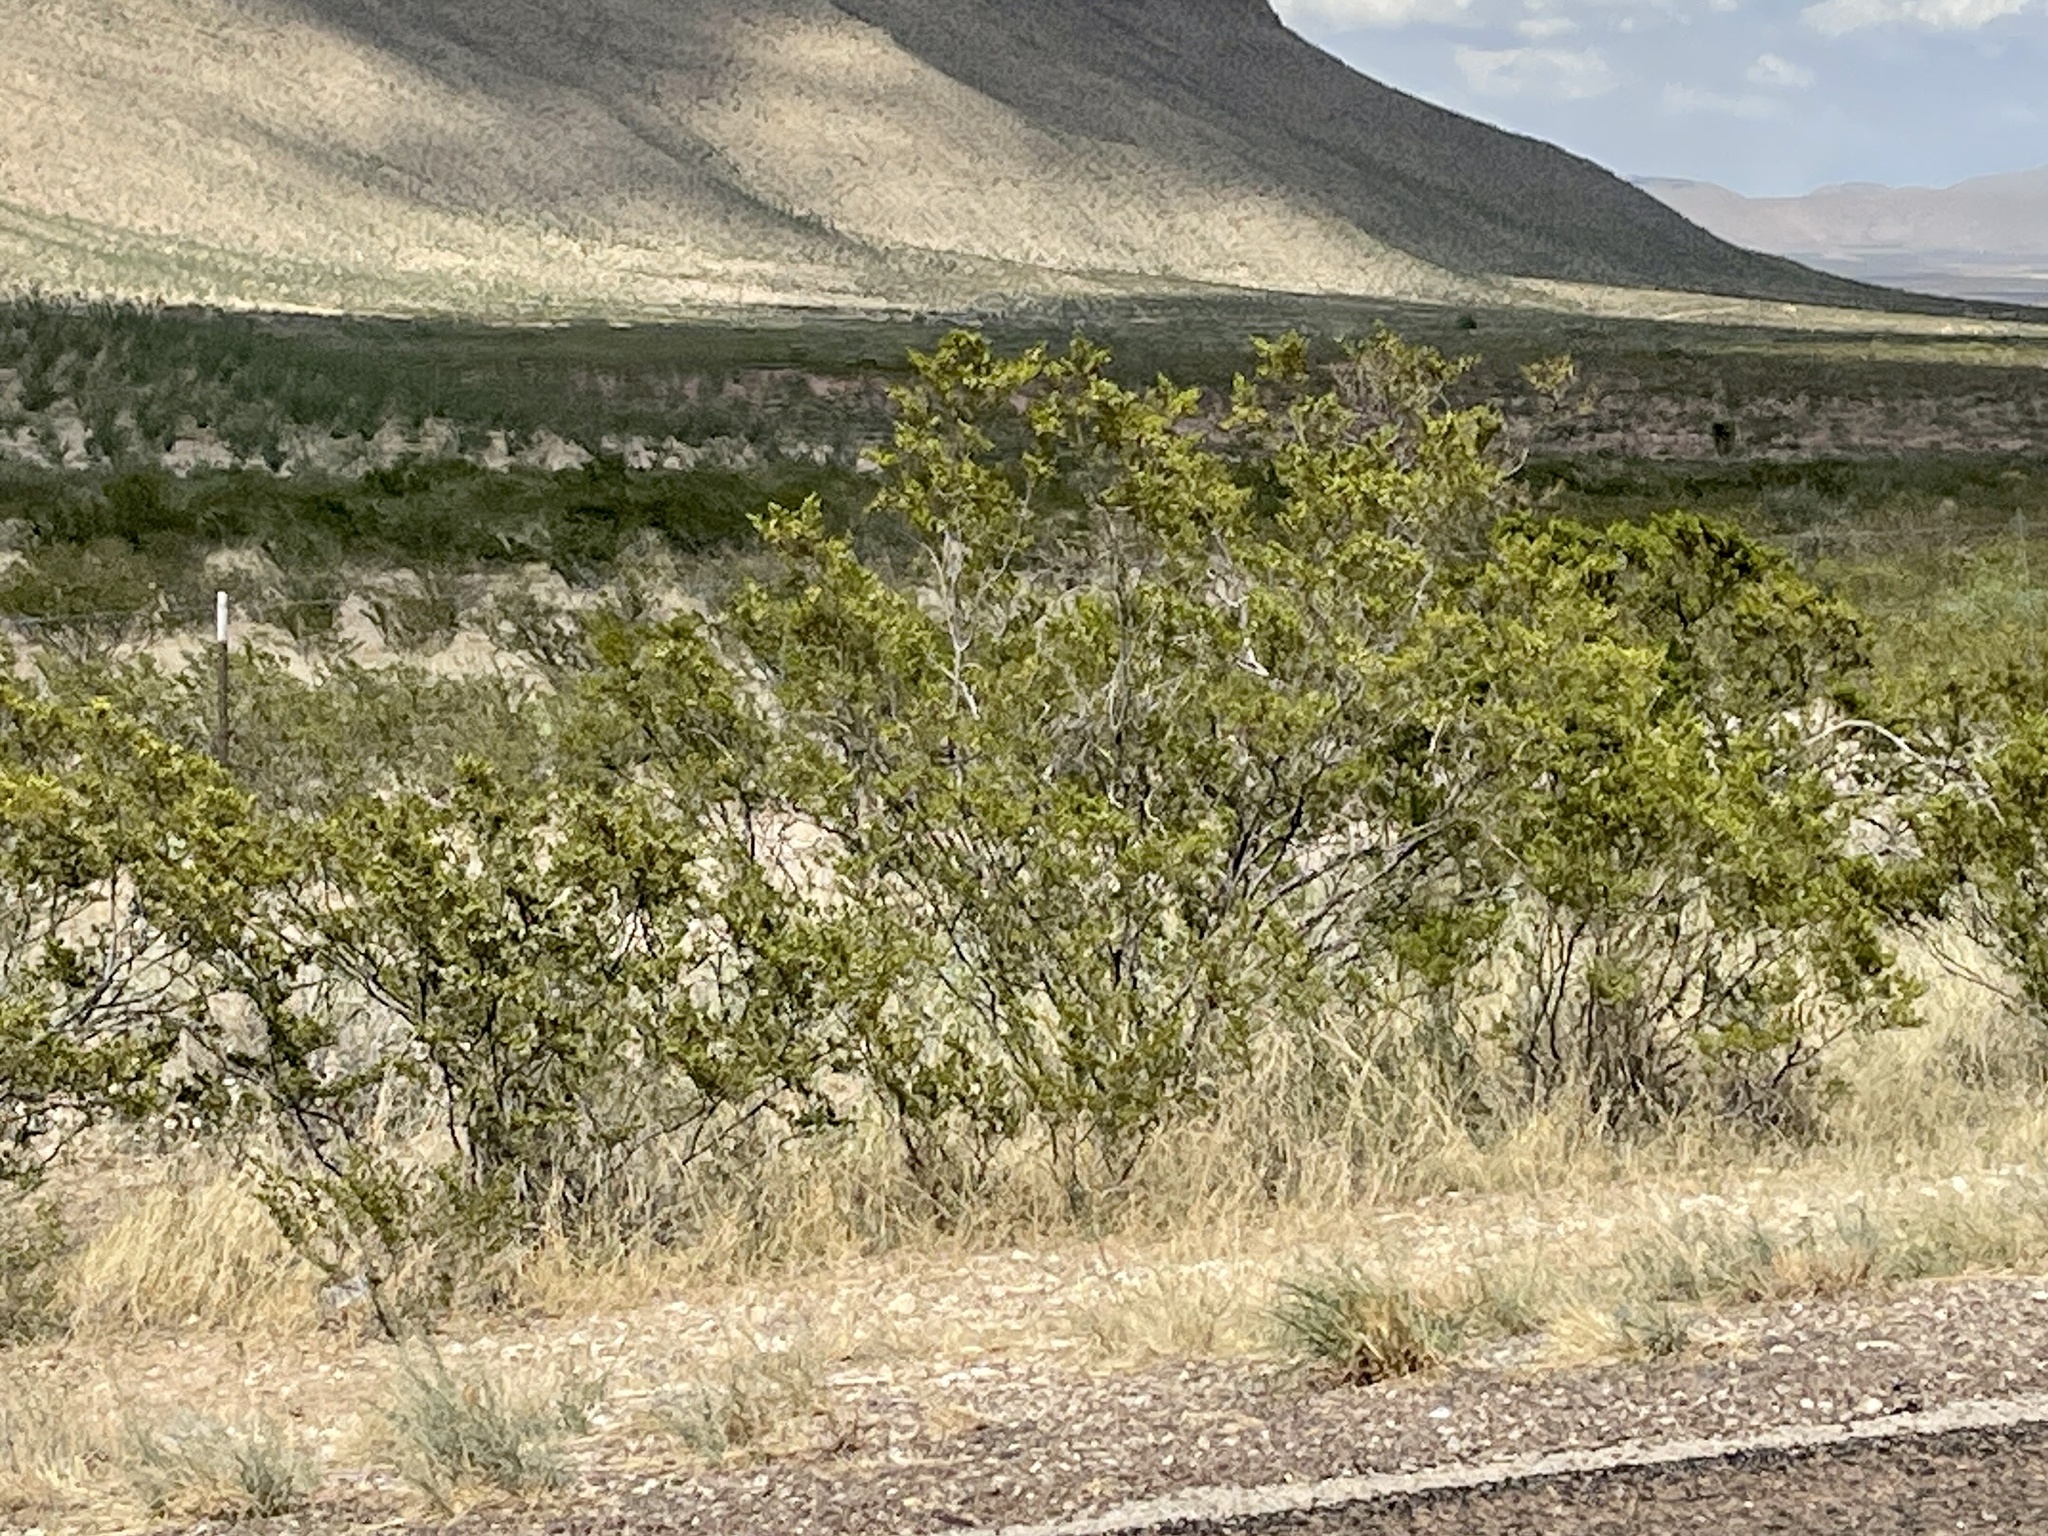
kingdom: Plantae
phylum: Tracheophyta
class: Magnoliopsida
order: Zygophyllales
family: Zygophyllaceae
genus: Larrea
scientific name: Larrea tridentata
